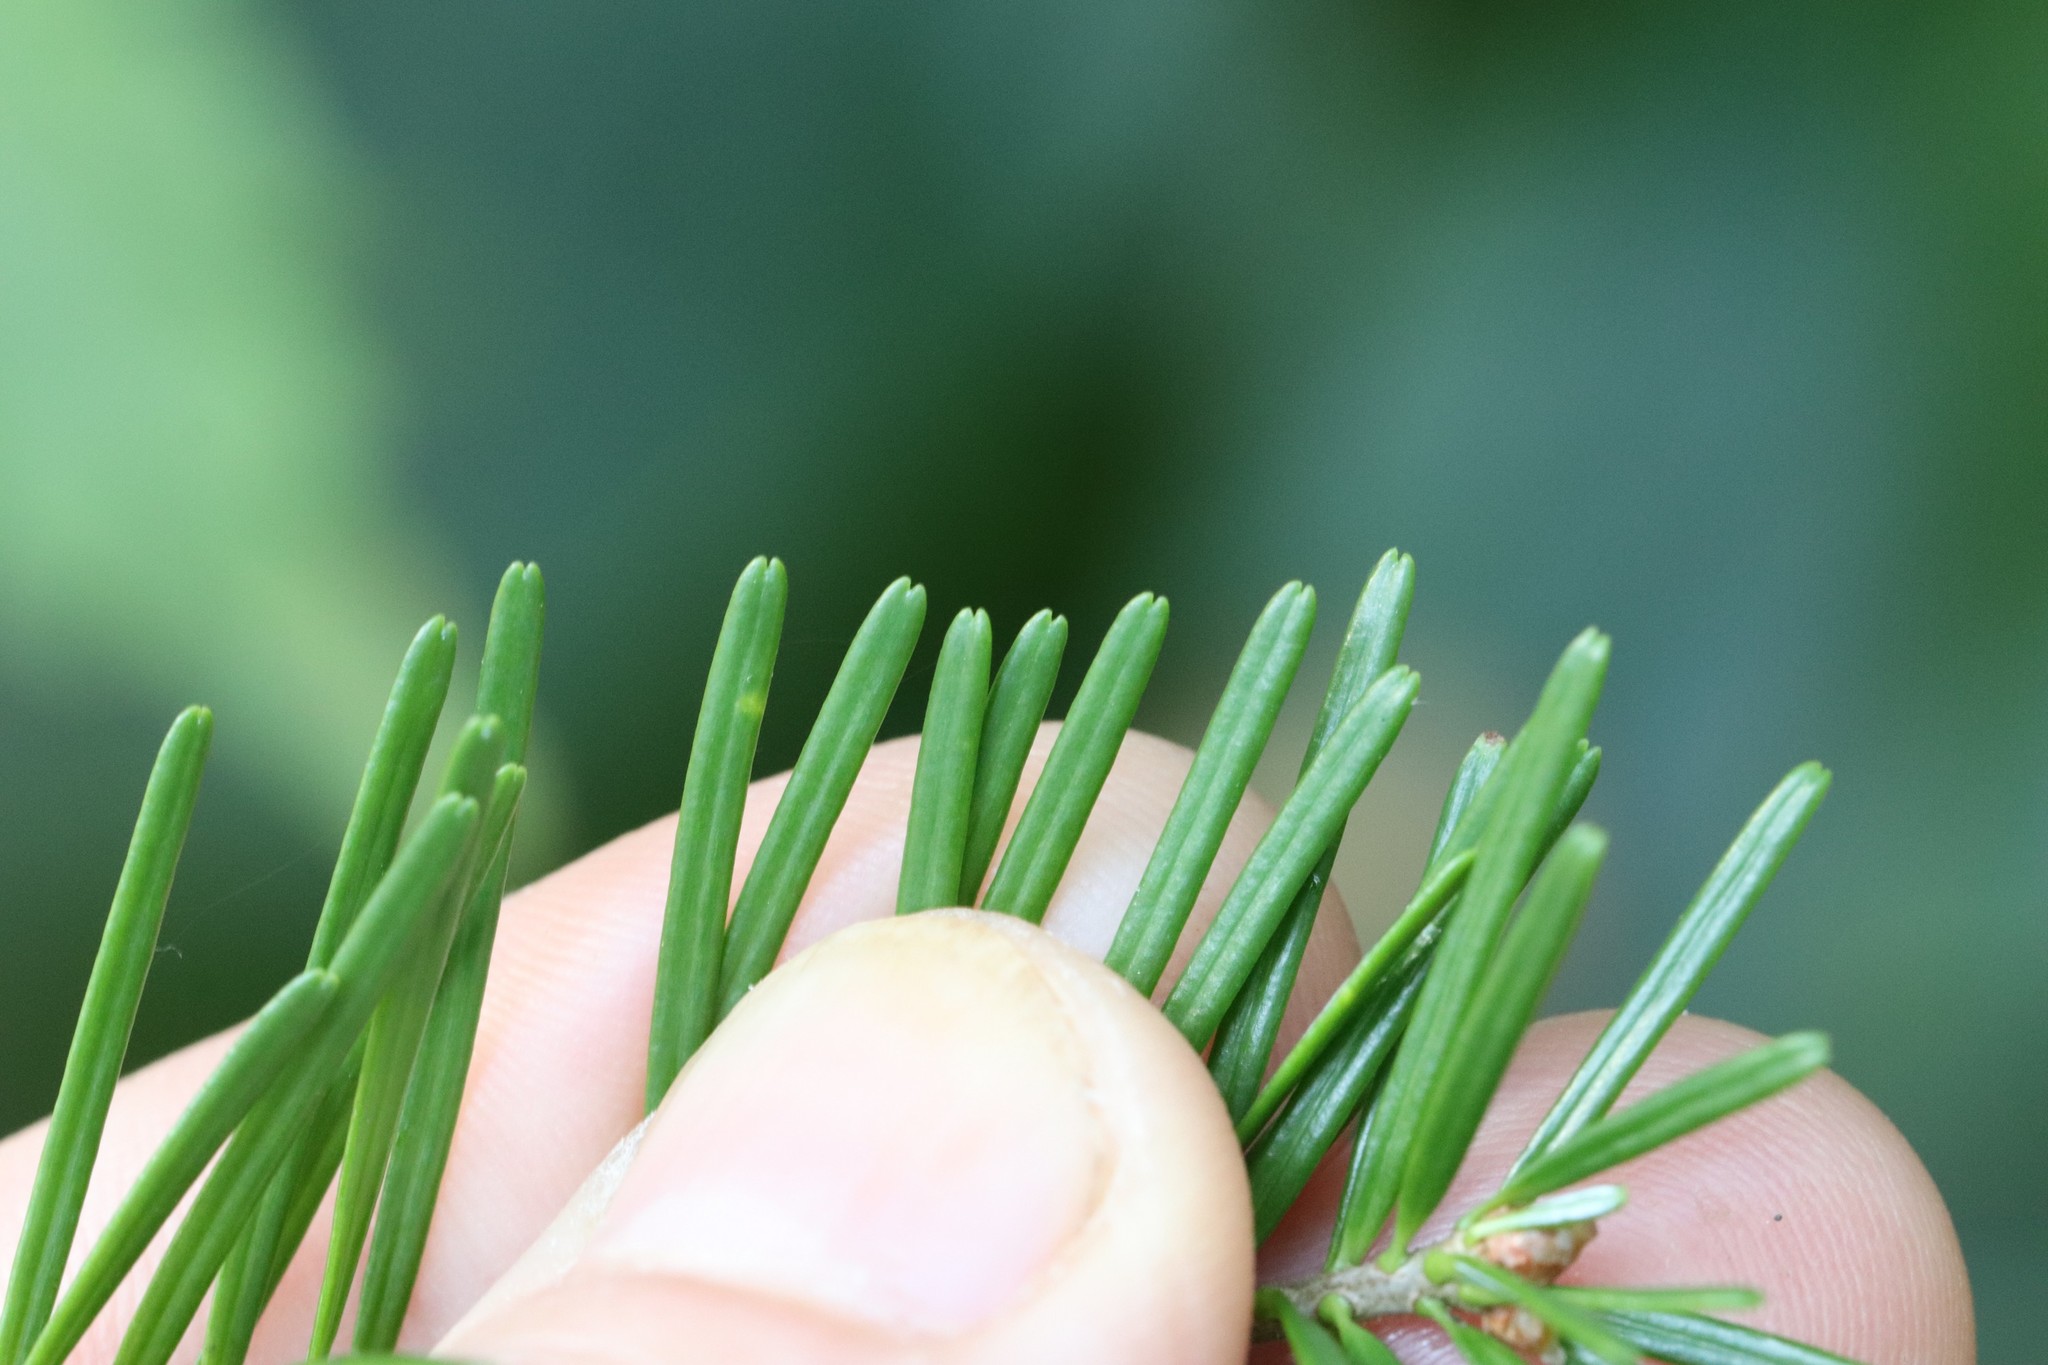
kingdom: Plantae
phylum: Tracheophyta
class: Pinopsida
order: Pinales
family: Pinaceae
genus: Abies
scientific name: Abies nephrolepis
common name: Hinggan fir
